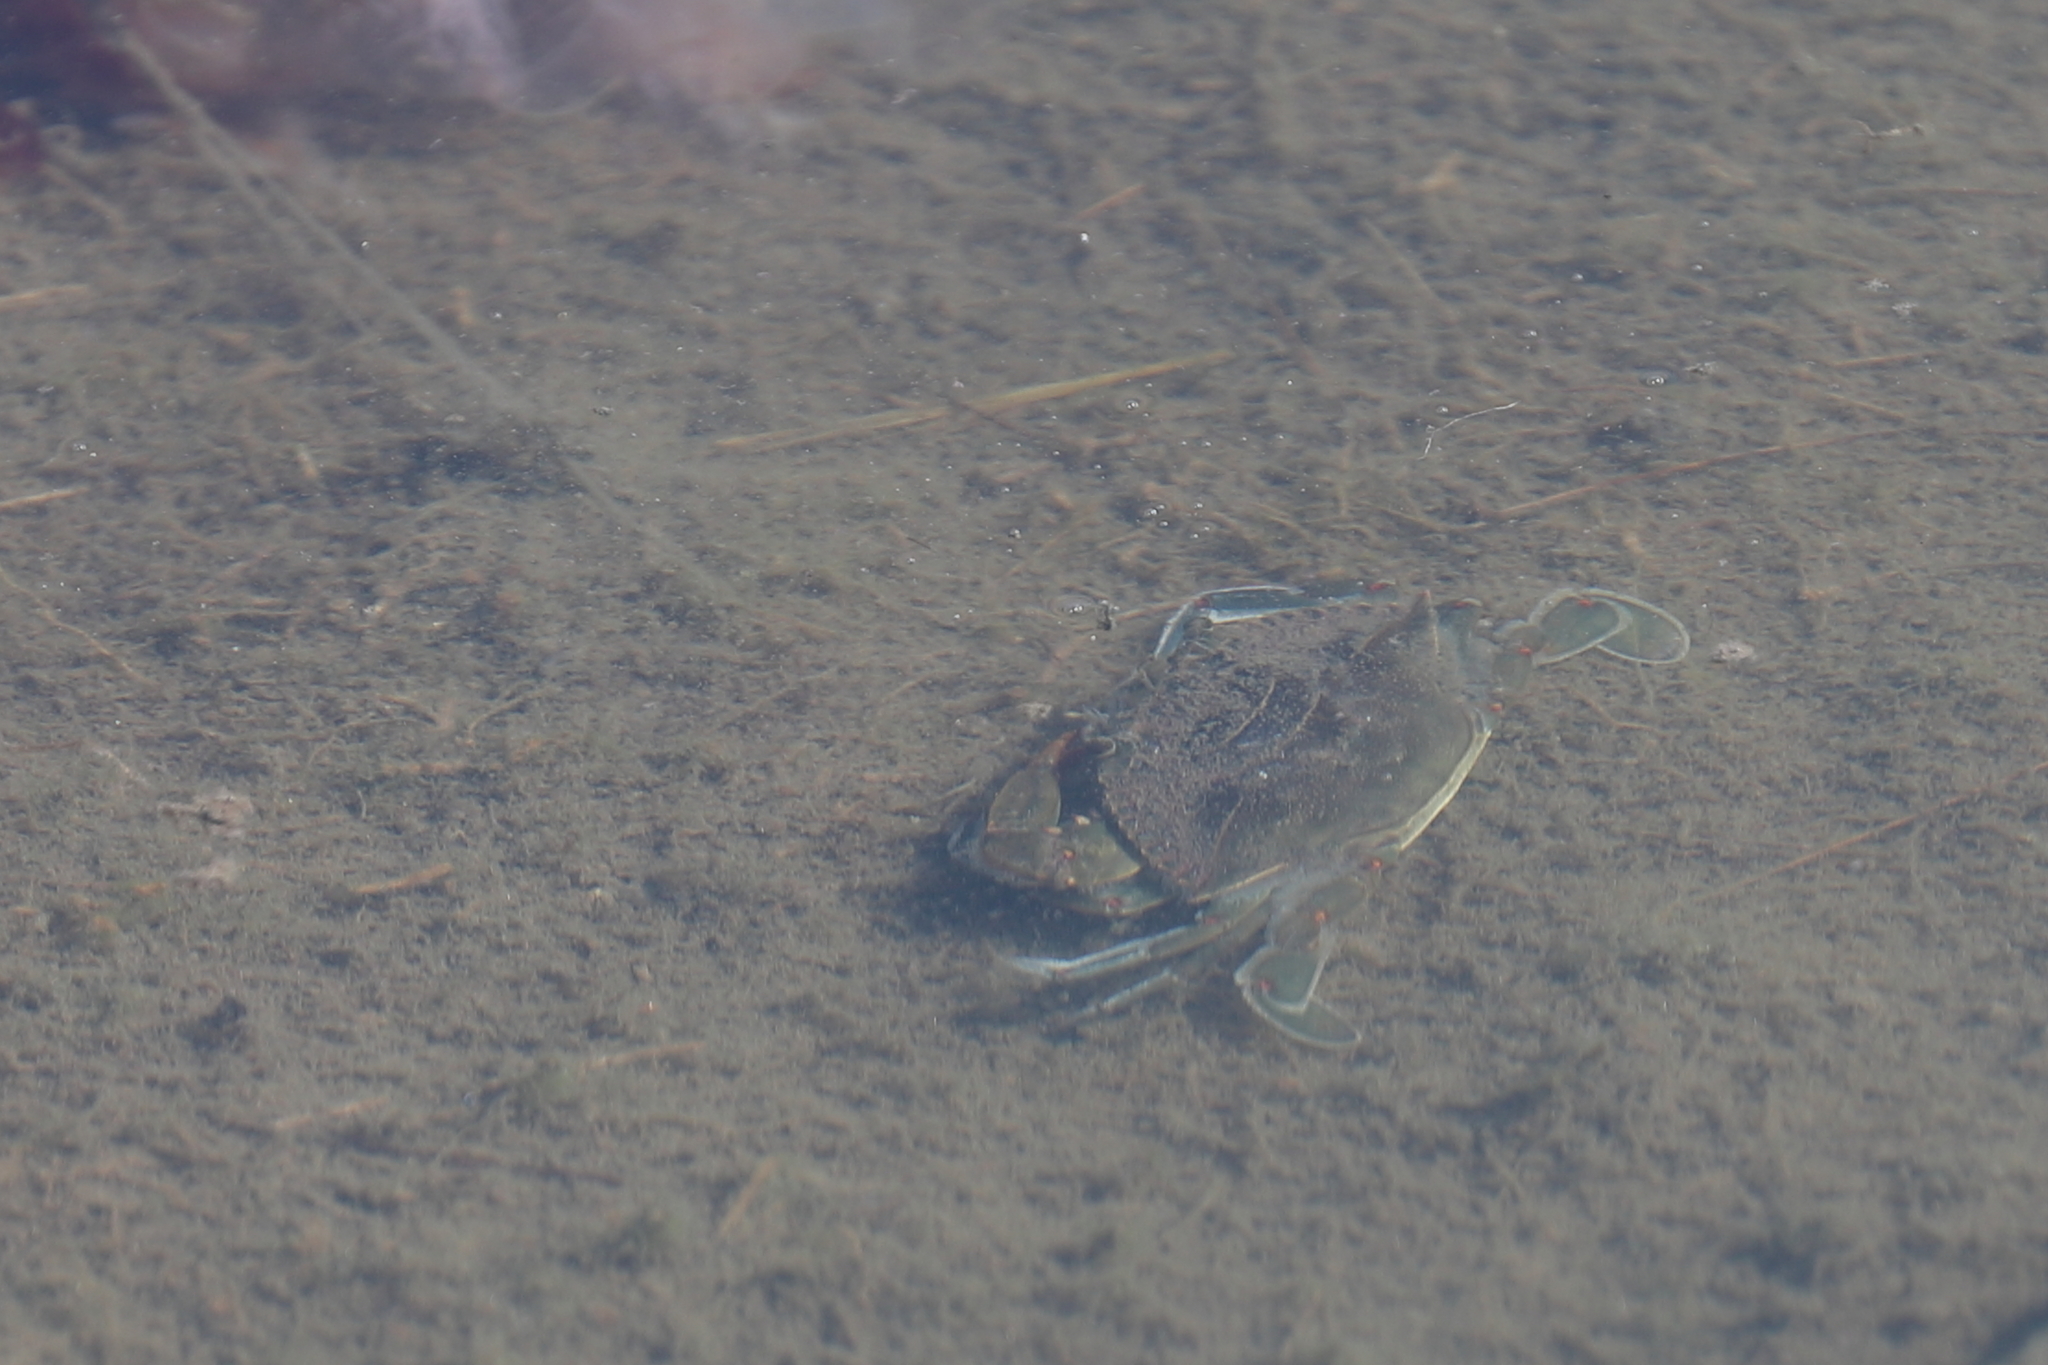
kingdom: Animalia
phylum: Arthropoda
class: Malacostraca
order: Decapoda
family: Portunidae
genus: Callinectes
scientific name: Callinectes sapidus
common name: Blue crab
